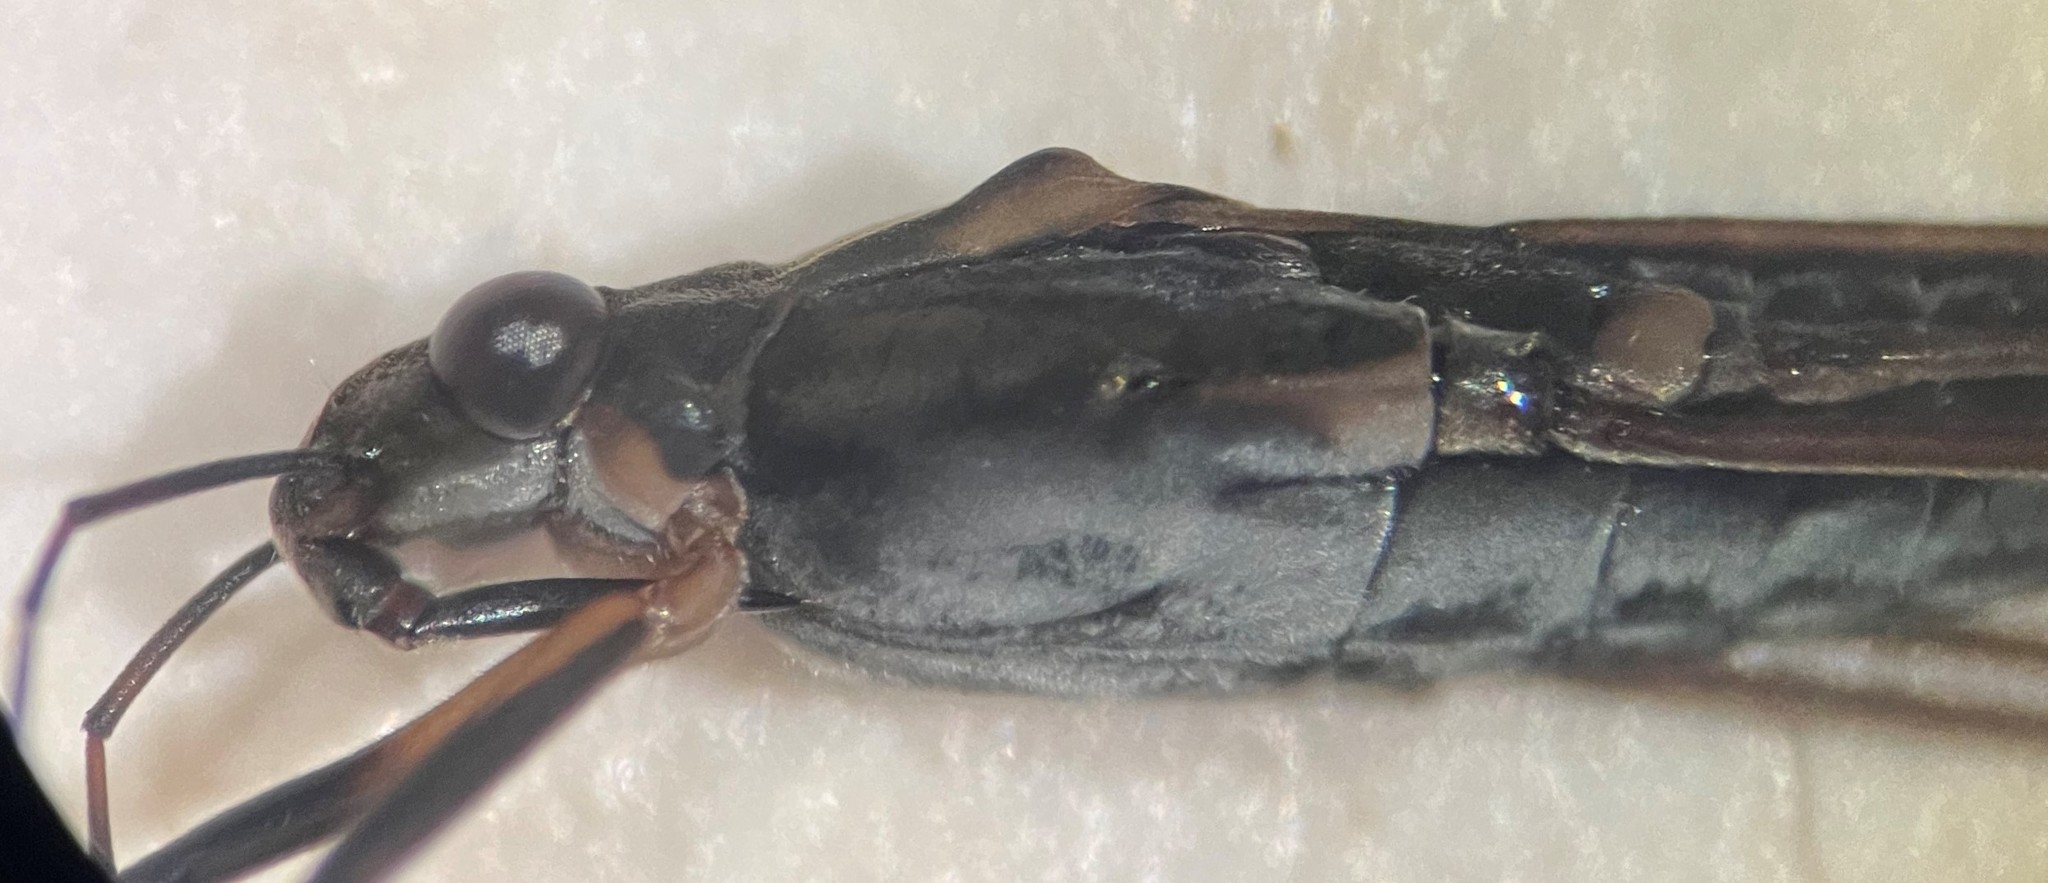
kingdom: Animalia
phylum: Arthropoda
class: Insecta
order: Hemiptera
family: Gerridae
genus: Gerris
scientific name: Gerris argenticollis
